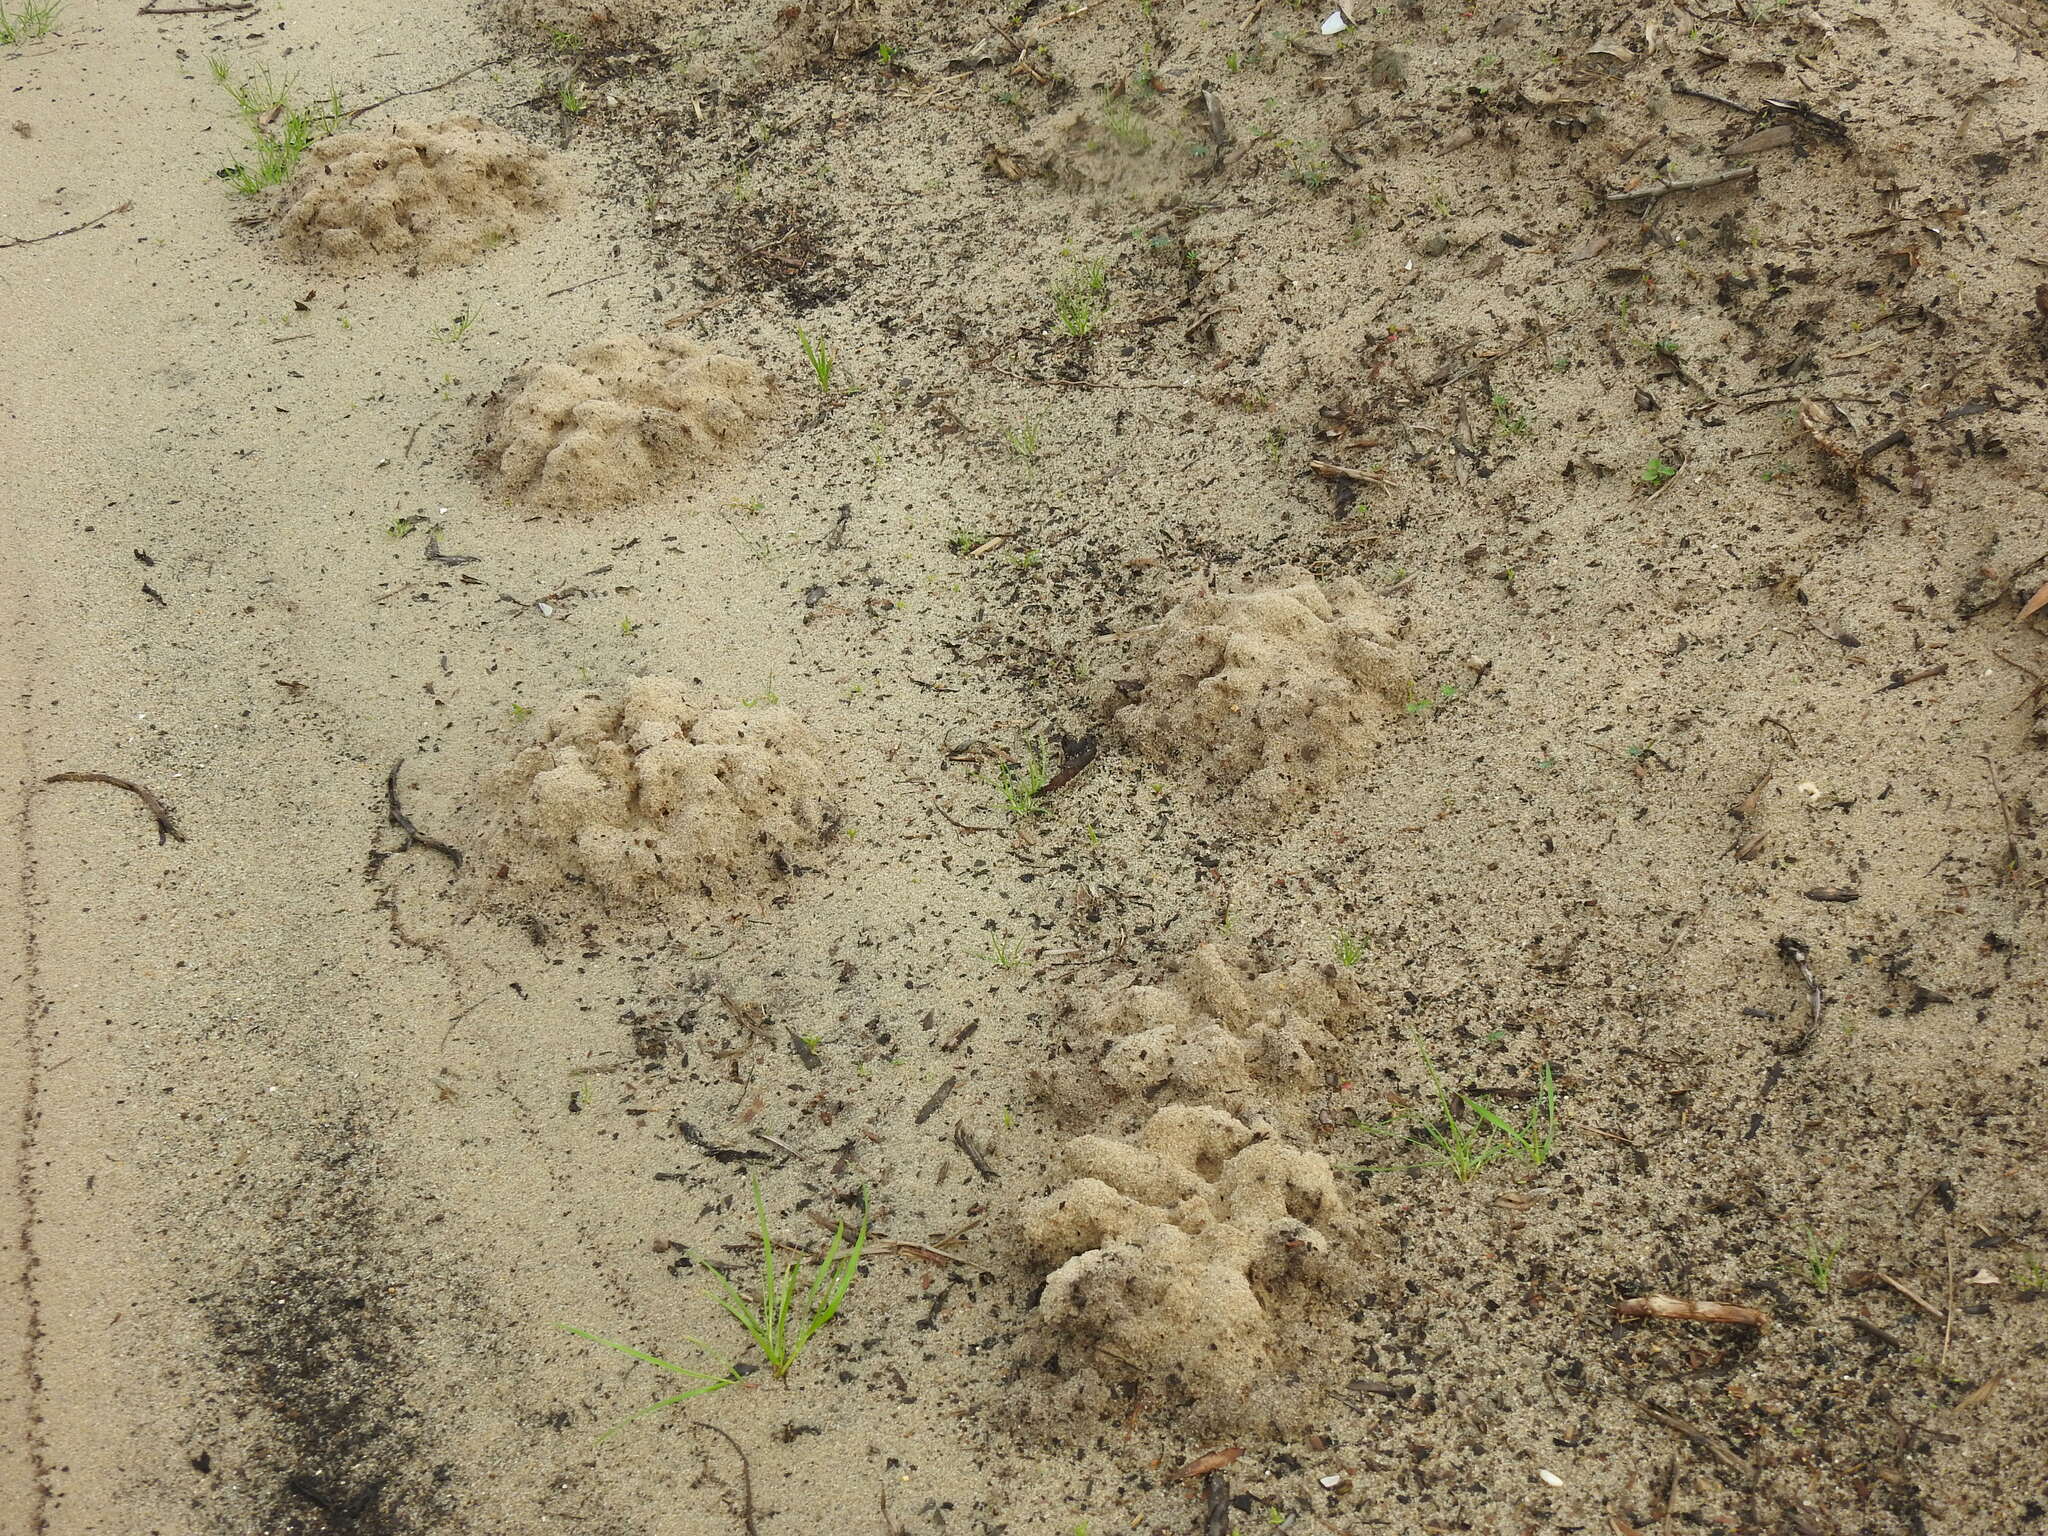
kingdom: Animalia
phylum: Chordata
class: Mammalia
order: Soricomorpha
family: Talpidae
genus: Talpa
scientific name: Talpa occidentalis
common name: Iberian mole
